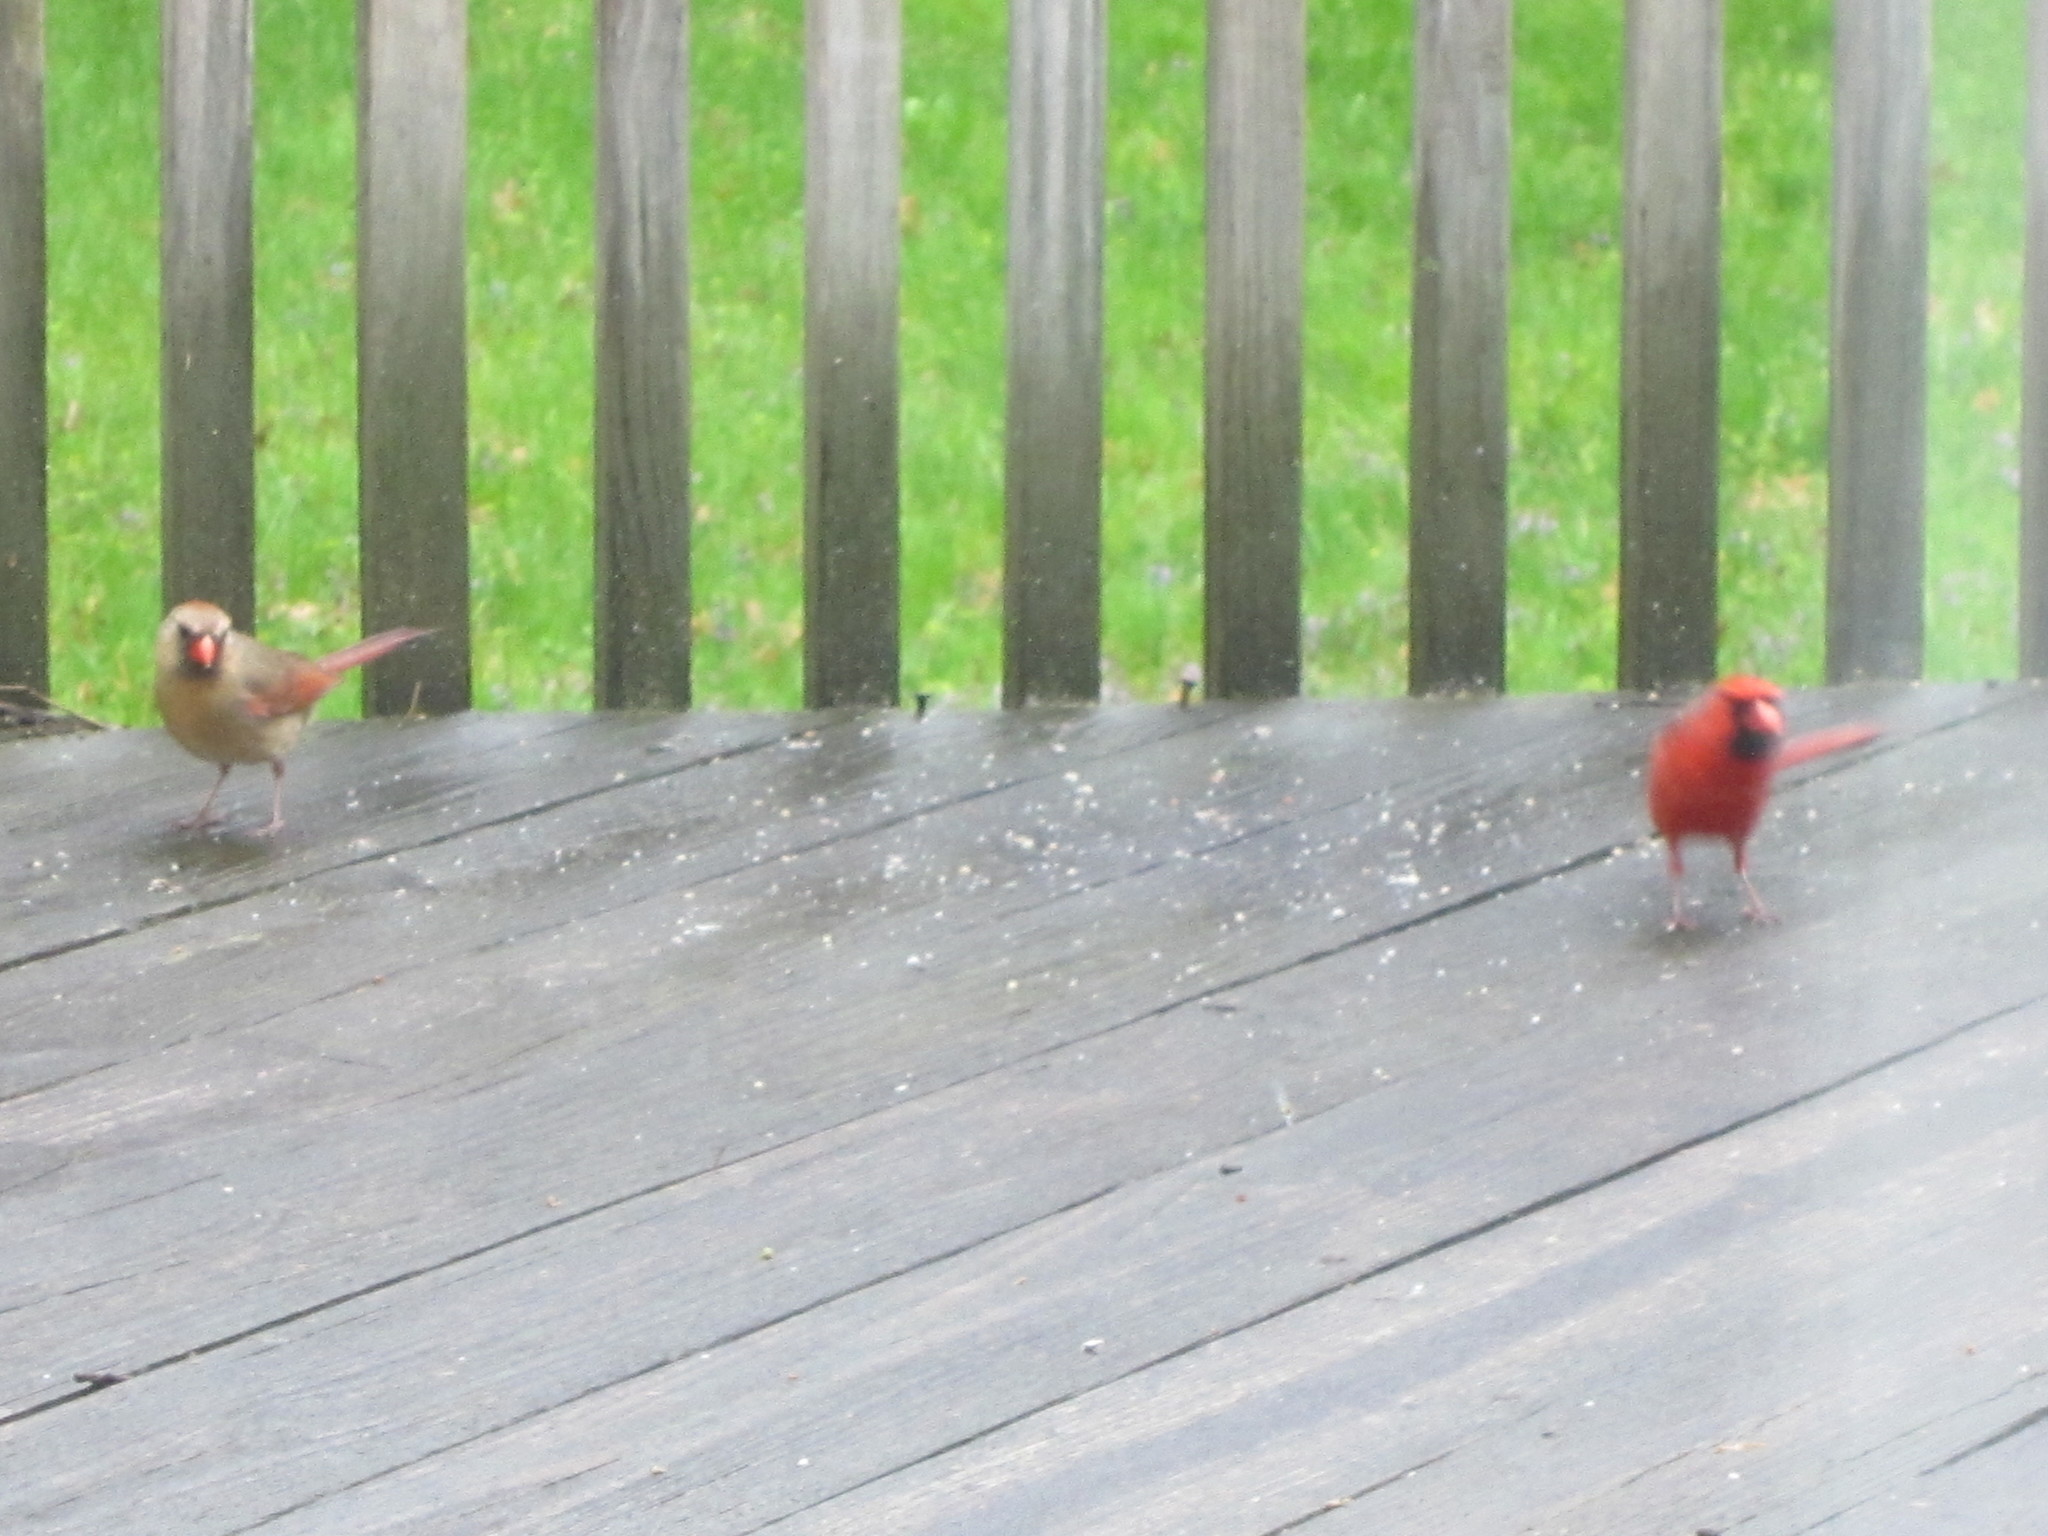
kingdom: Animalia
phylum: Chordata
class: Aves
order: Passeriformes
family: Cardinalidae
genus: Cardinalis
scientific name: Cardinalis cardinalis
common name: Northern cardinal
